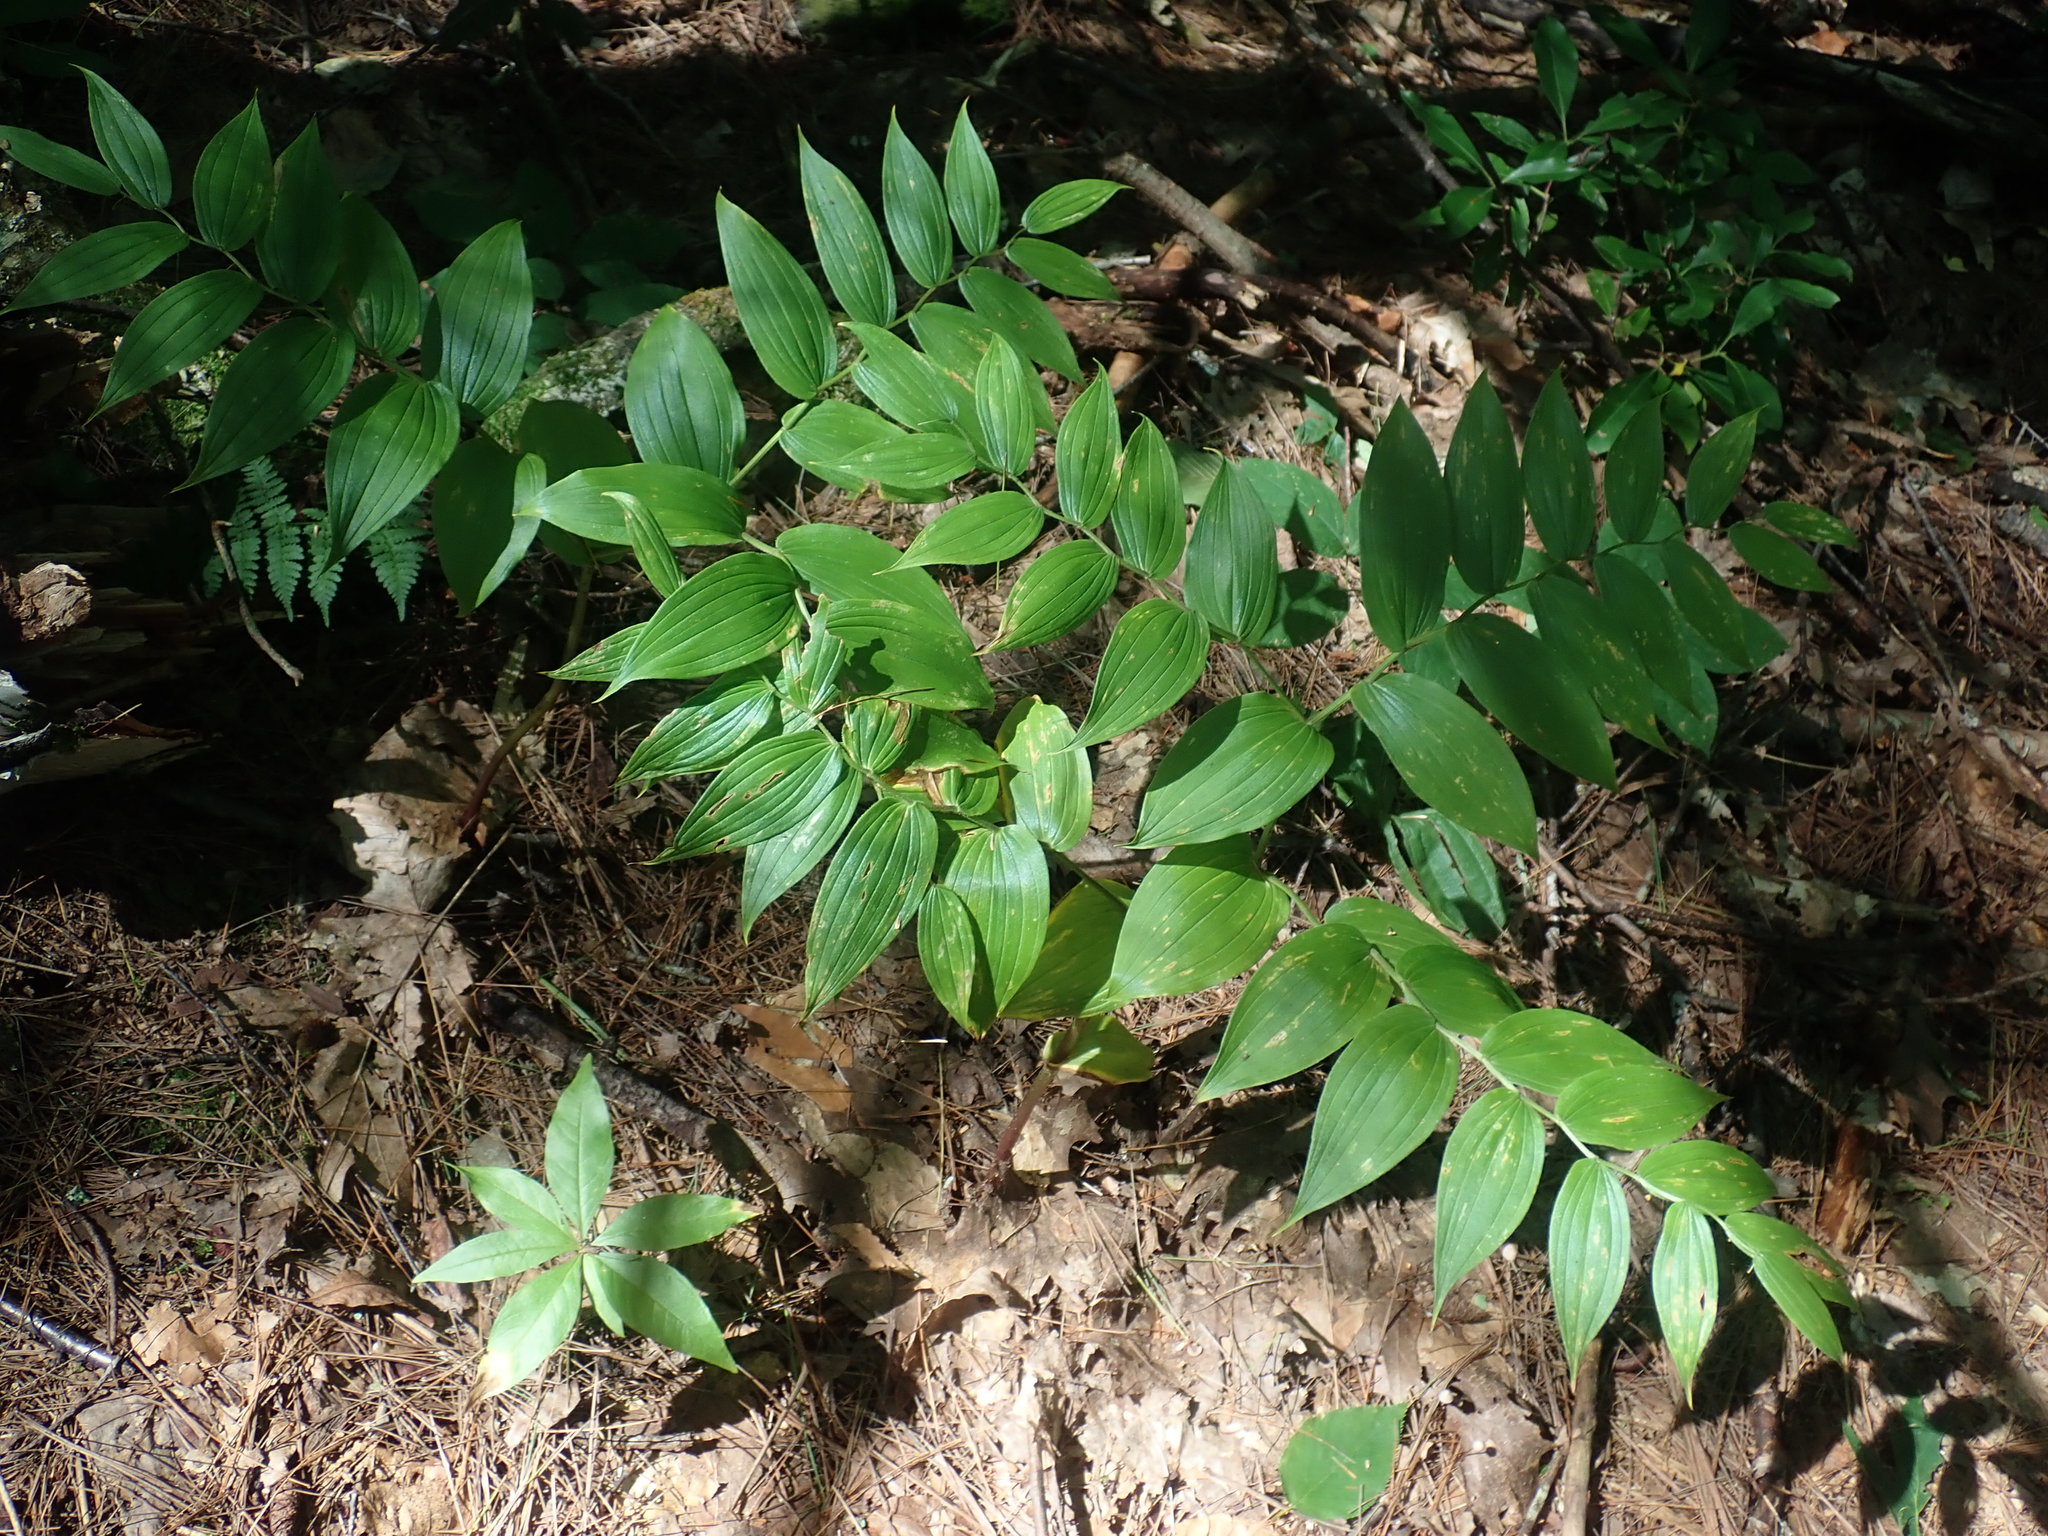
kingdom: Plantae
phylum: Tracheophyta
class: Liliopsida
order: Liliales
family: Liliaceae
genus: Streptopus
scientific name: Streptopus lanceolatus
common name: Rose mandarin
